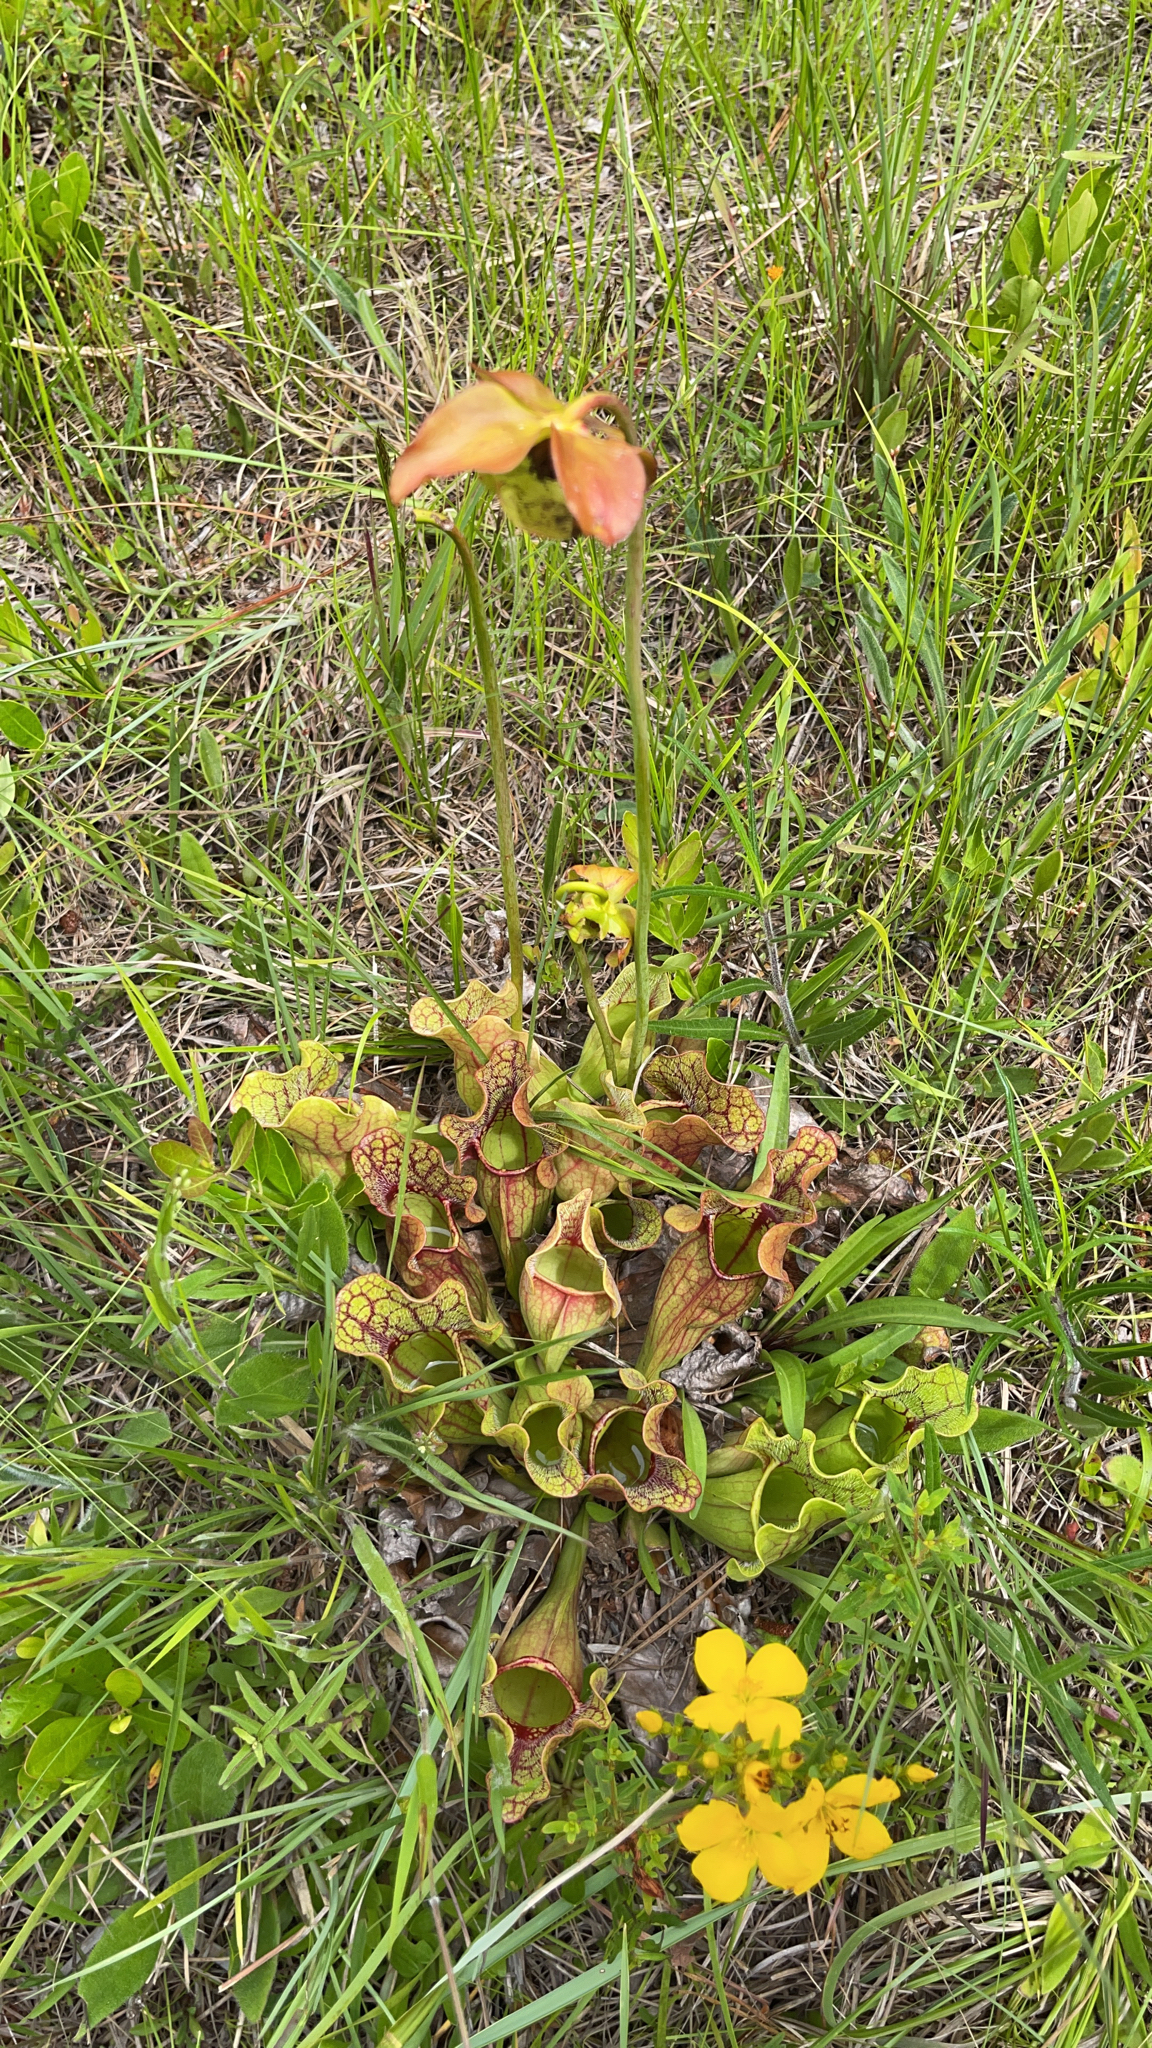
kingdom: Plantae
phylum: Tracheophyta
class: Magnoliopsida
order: Ericales
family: Sarraceniaceae
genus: Sarracenia
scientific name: Sarracenia purpurea
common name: Pitcherplant
